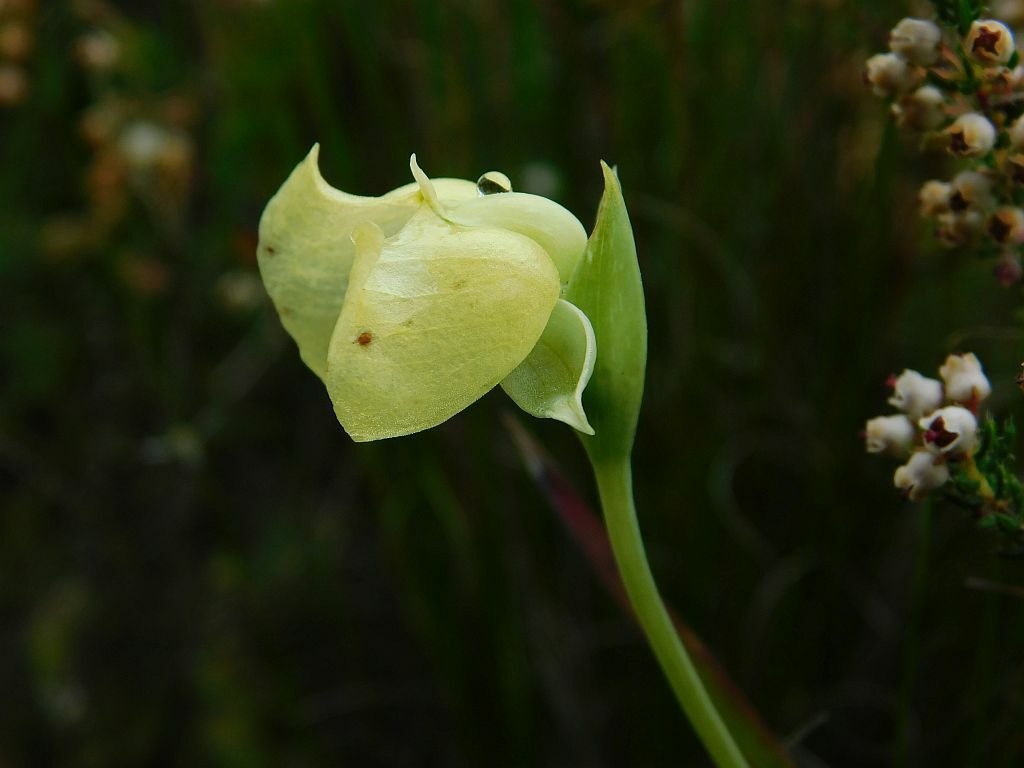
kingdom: Plantae
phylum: Tracheophyta
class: Liliopsida
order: Asparagales
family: Orchidaceae
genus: Pterygodium
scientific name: Pterygodium catholicum
